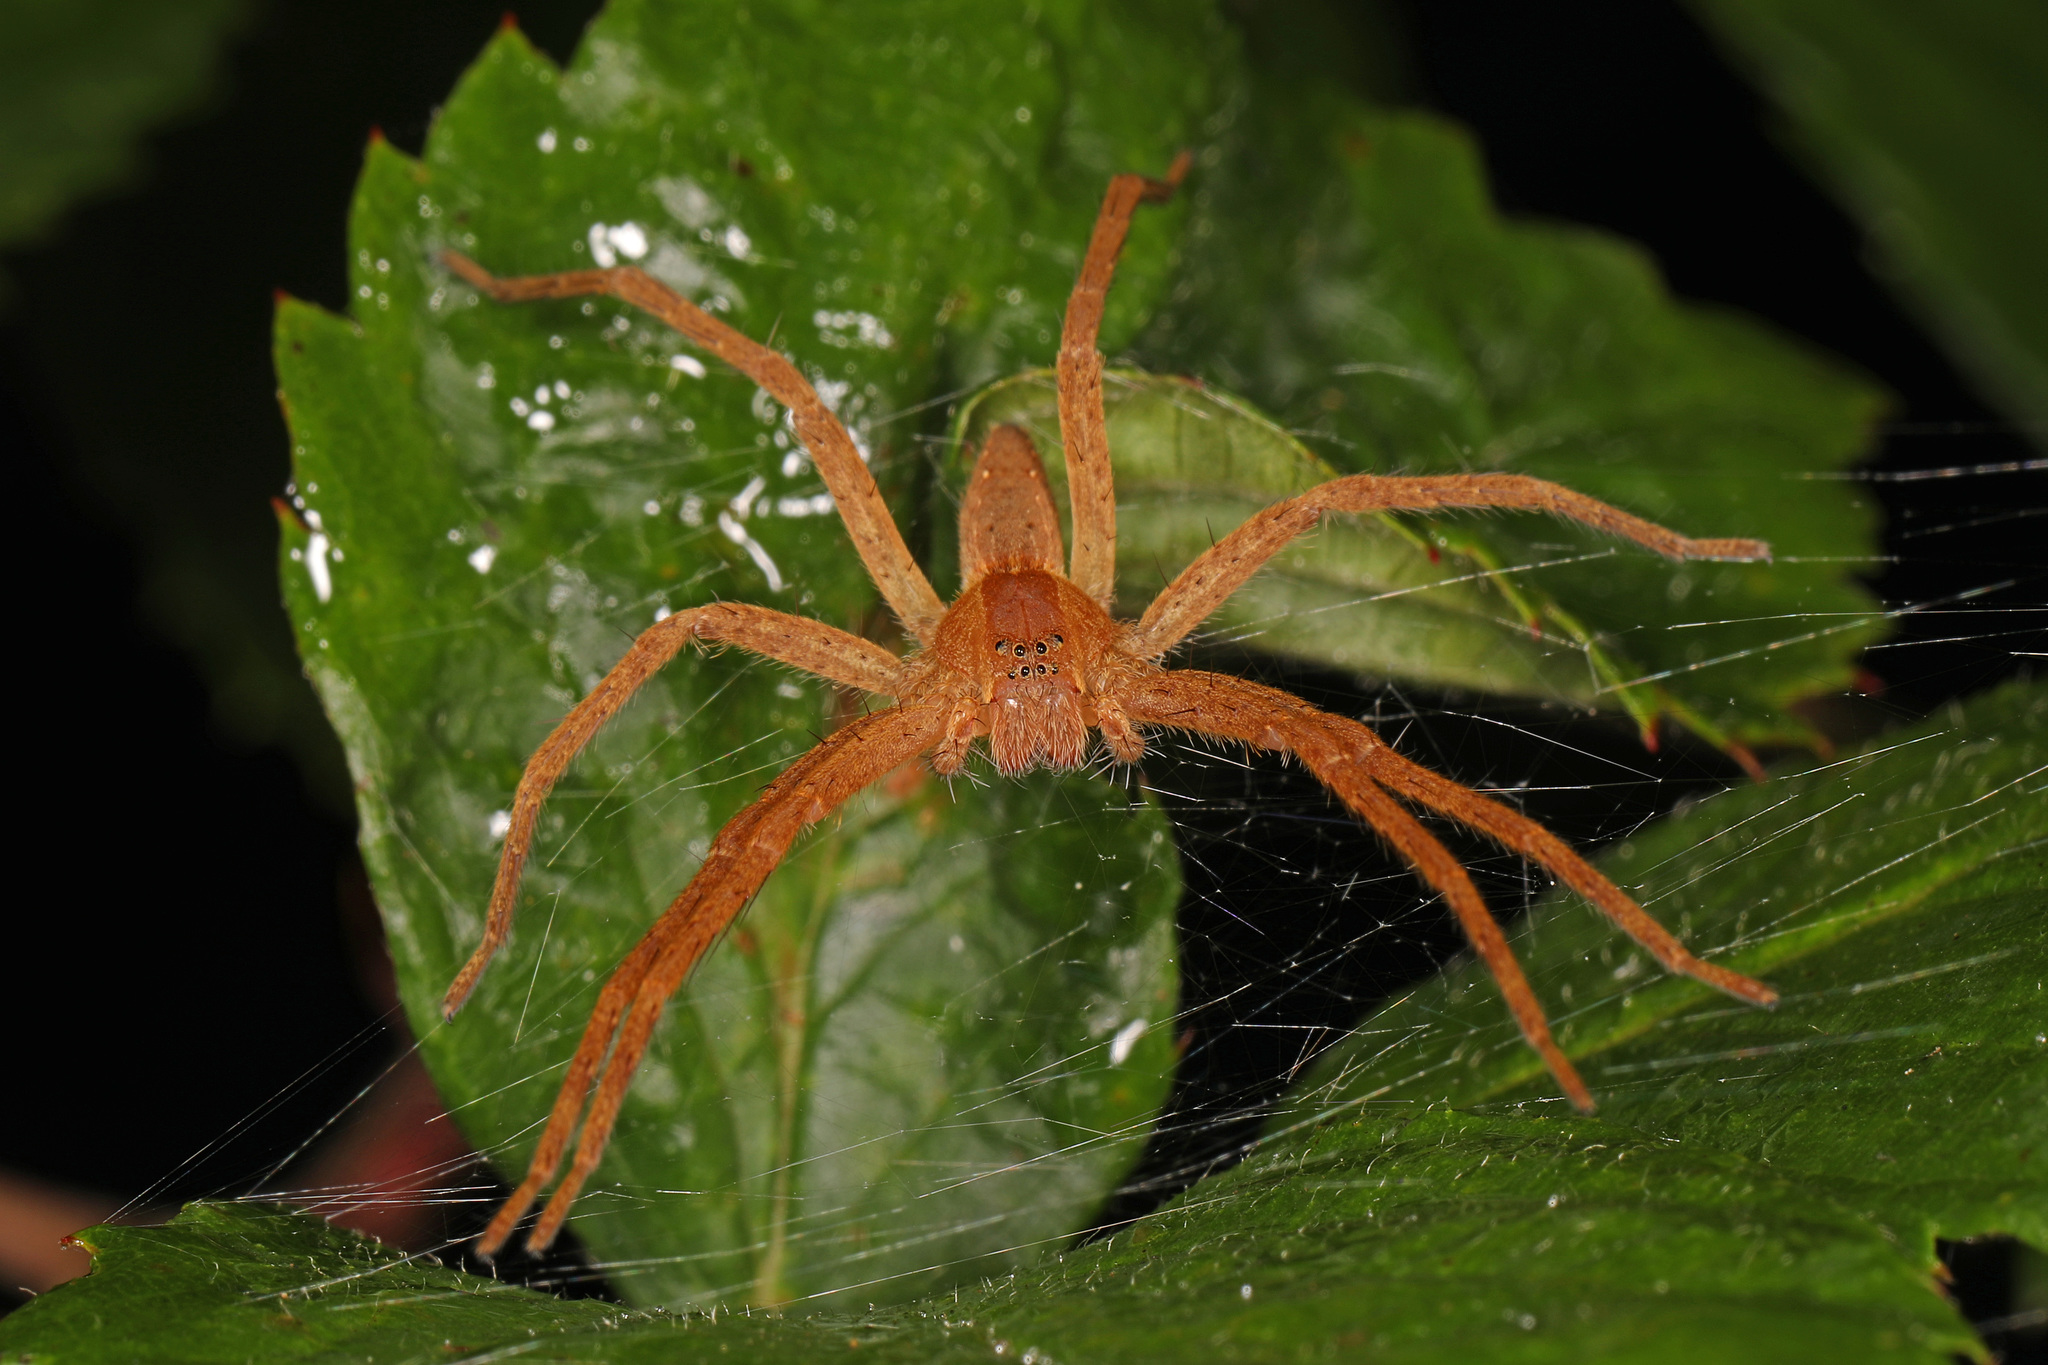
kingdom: Animalia
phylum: Arthropoda
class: Arachnida
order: Araneae
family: Pisauridae
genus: Pisaurina
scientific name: Pisaurina mira
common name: American nursery web spider
